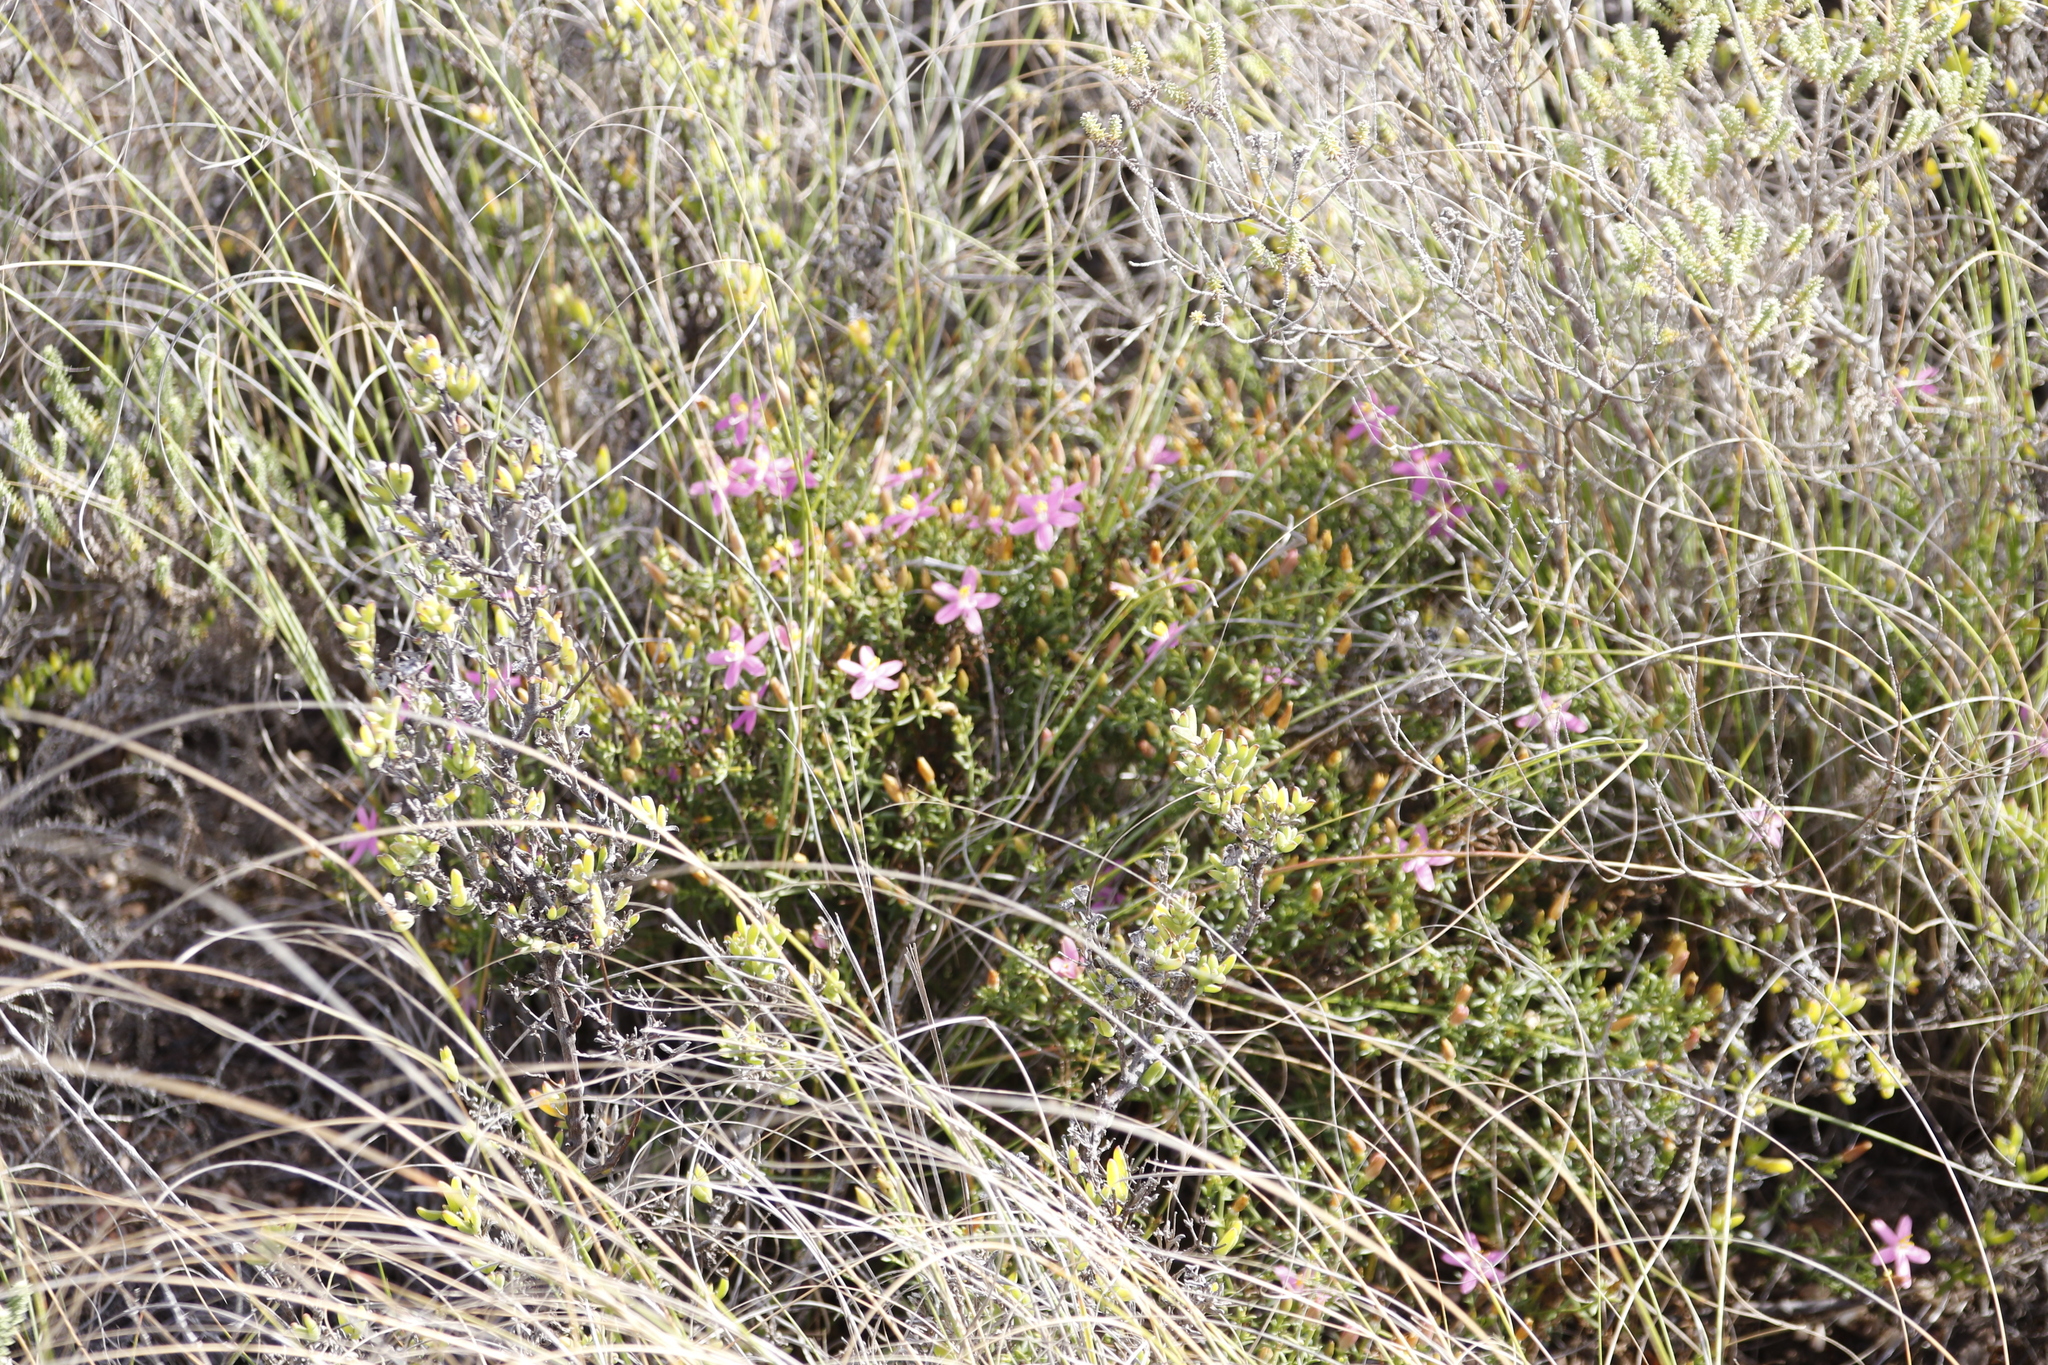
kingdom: Plantae
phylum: Tracheophyta
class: Magnoliopsida
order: Gentianales
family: Gentianaceae
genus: Chironia
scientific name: Chironia baccifera
